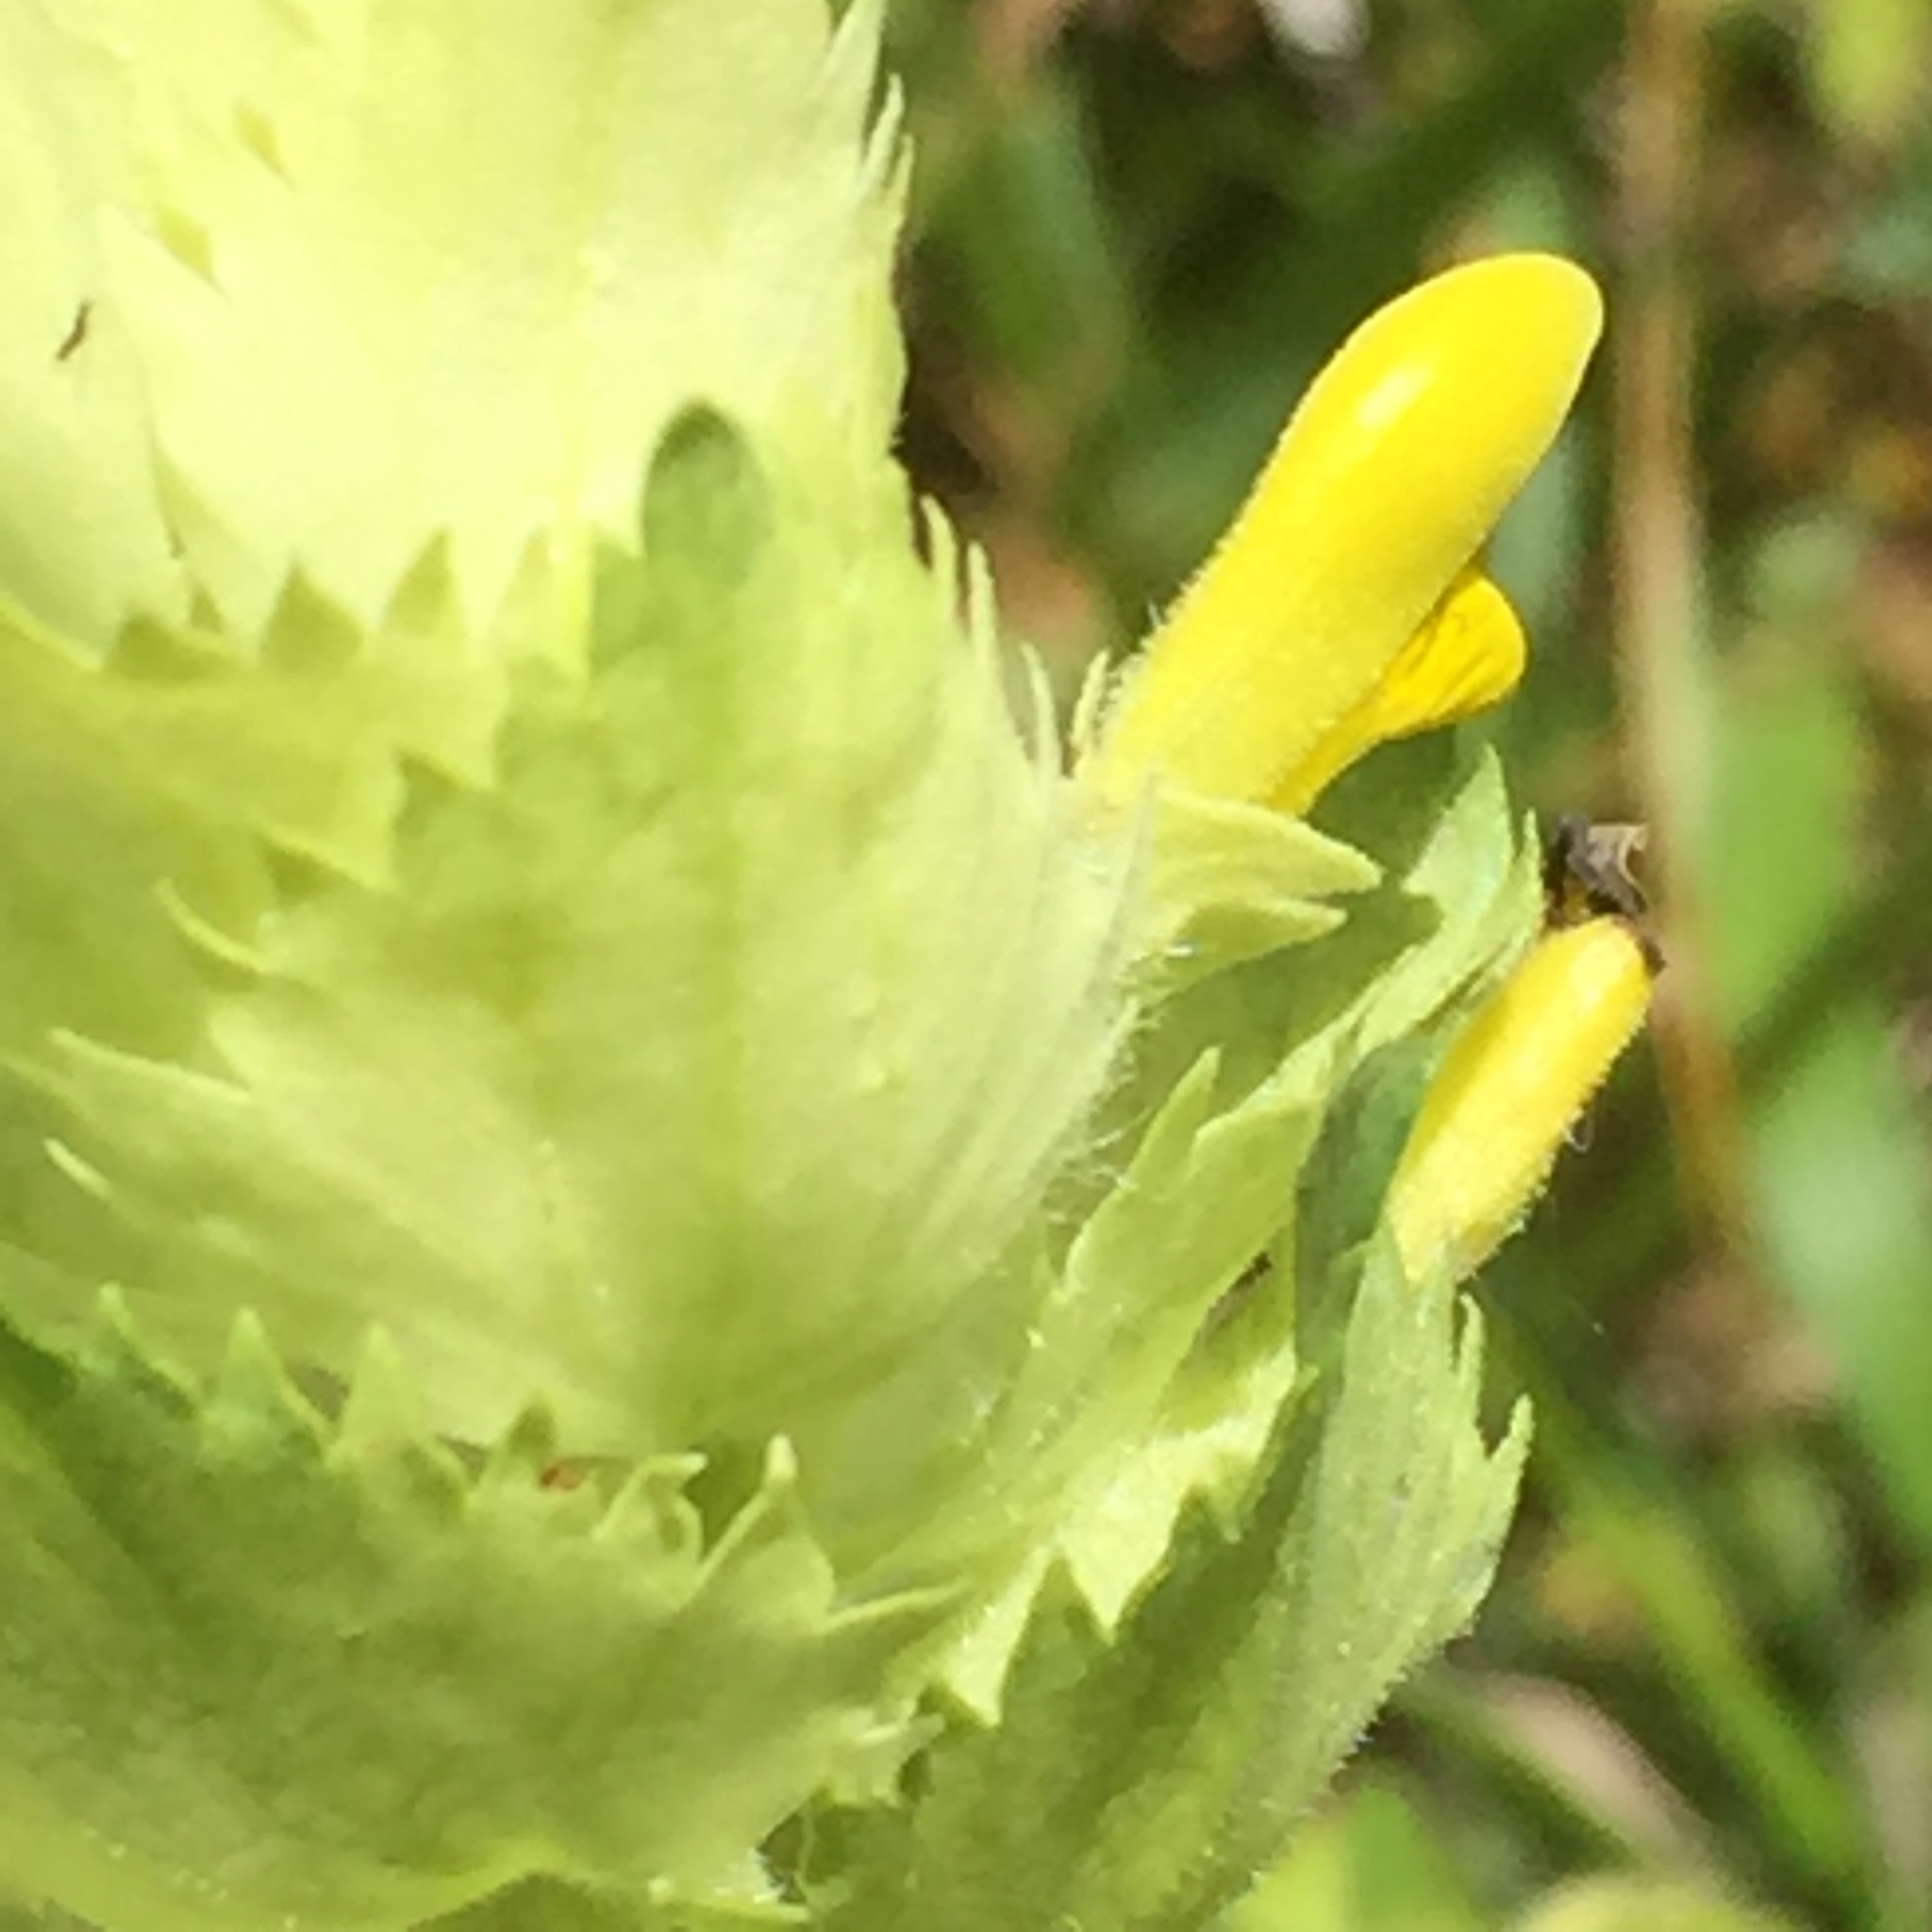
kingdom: Plantae
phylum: Tracheophyta
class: Magnoliopsida
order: Lamiales
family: Orobanchaceae
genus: Rhinanthus
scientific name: Rhinanthus alectorolophus
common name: Greater yellow-rattle
